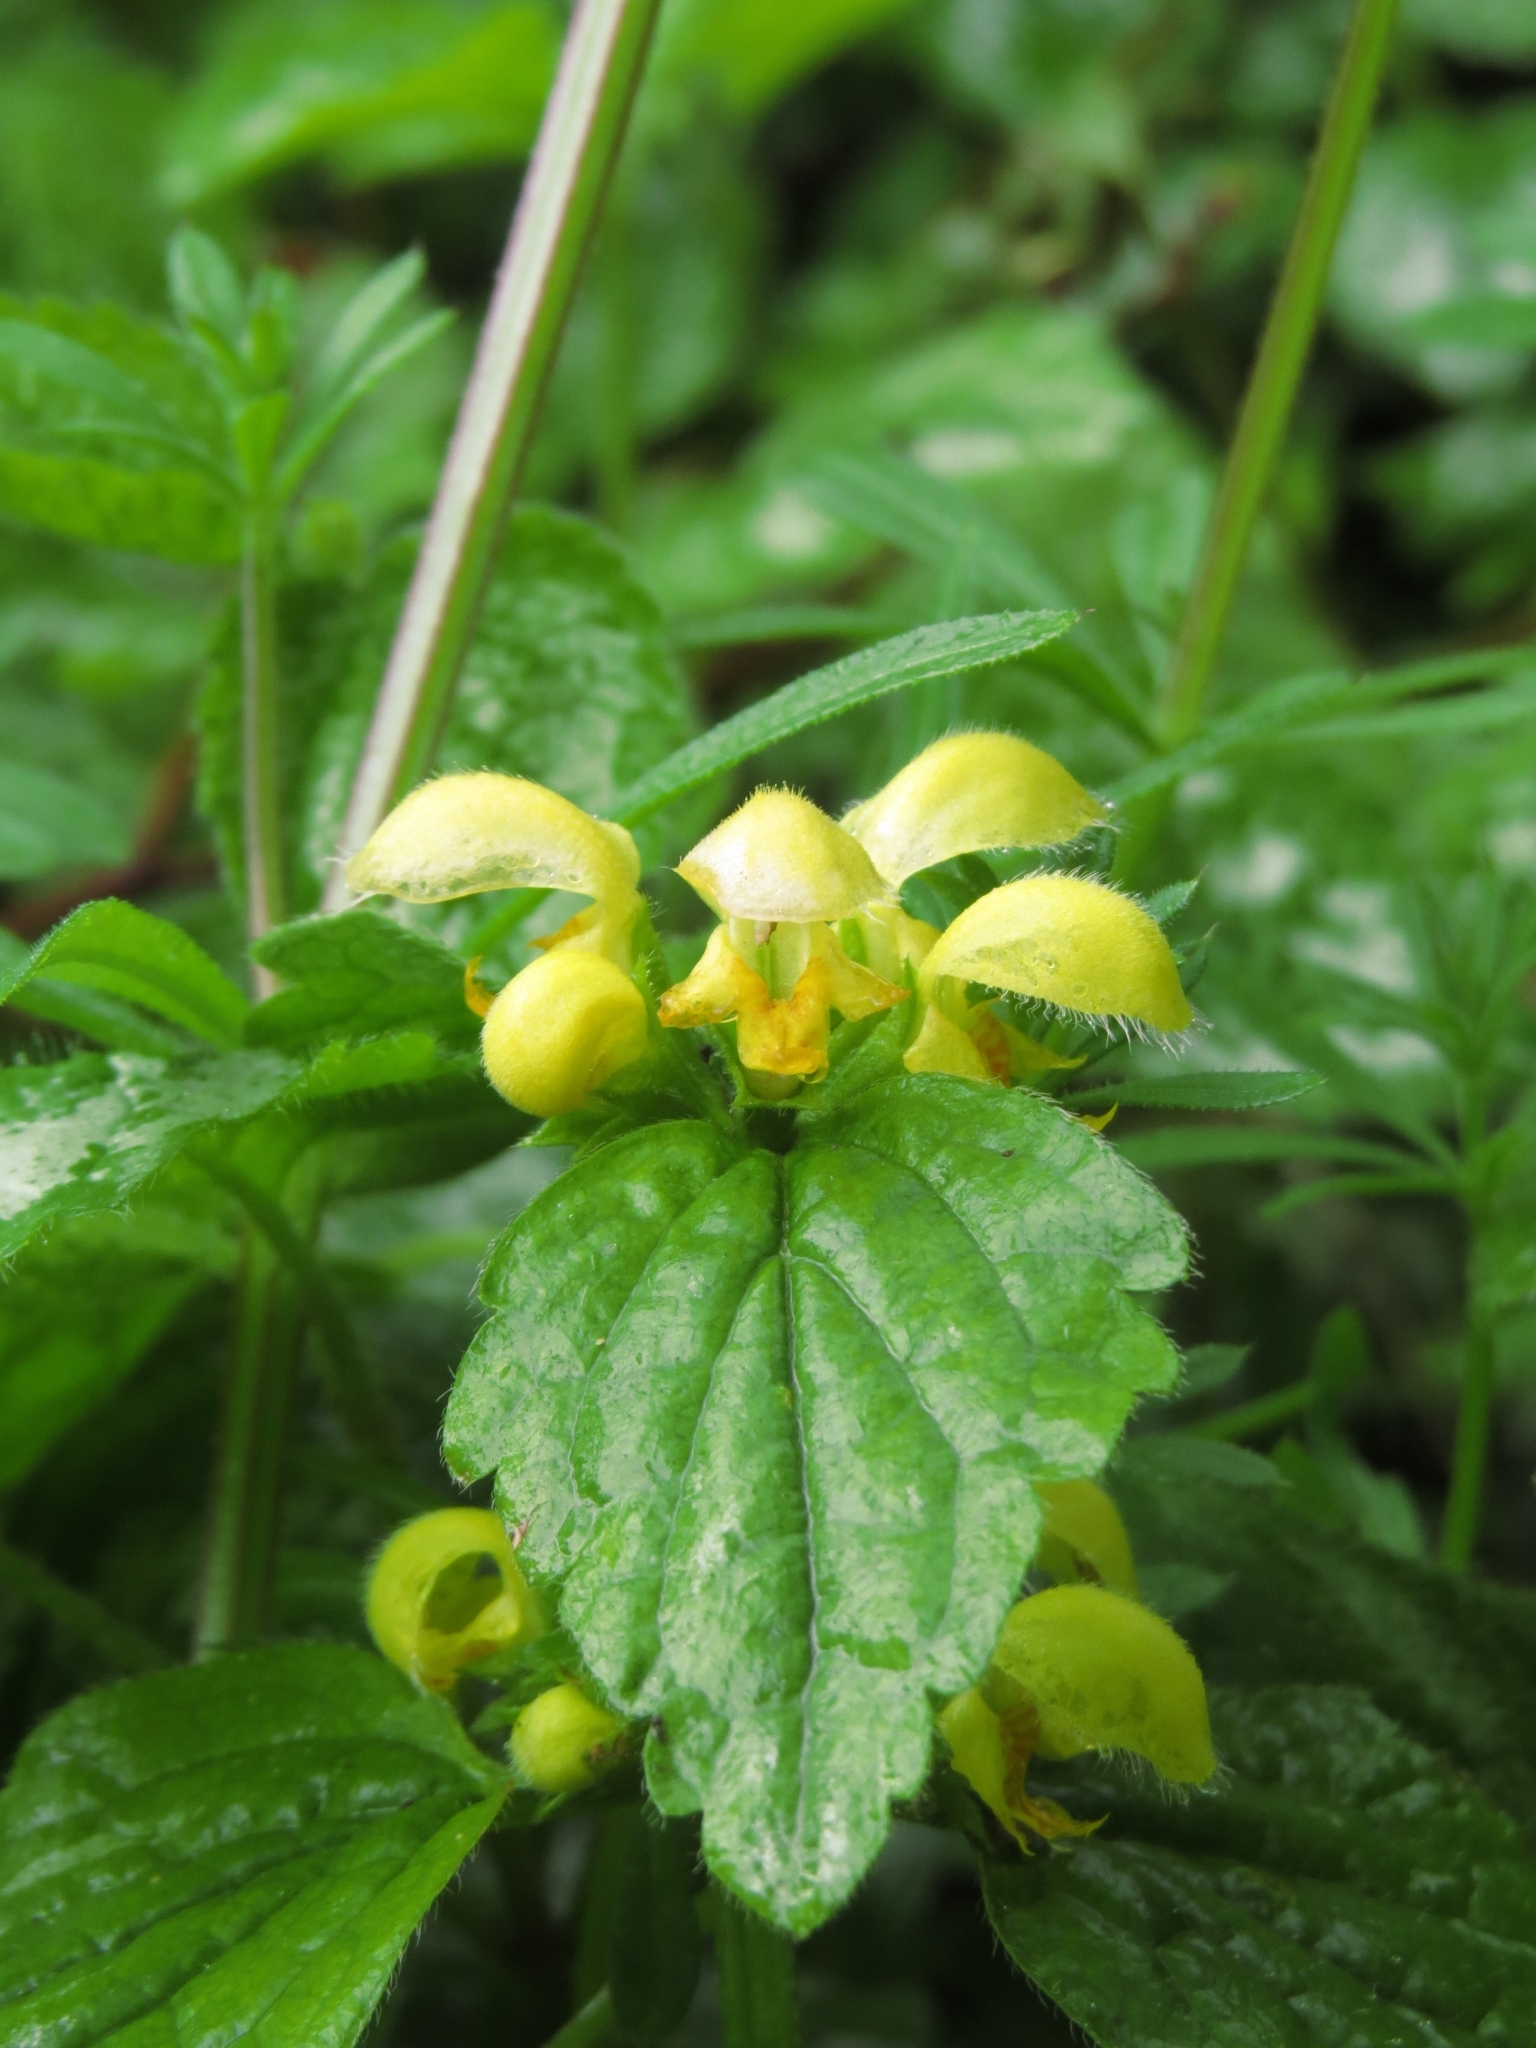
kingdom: Plantae
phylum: Tracheophyta
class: Magnoliopsida
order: Lamiales
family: Lamiaceae
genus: Lamium
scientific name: Lamium galeobdolon
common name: Yellow archangel
